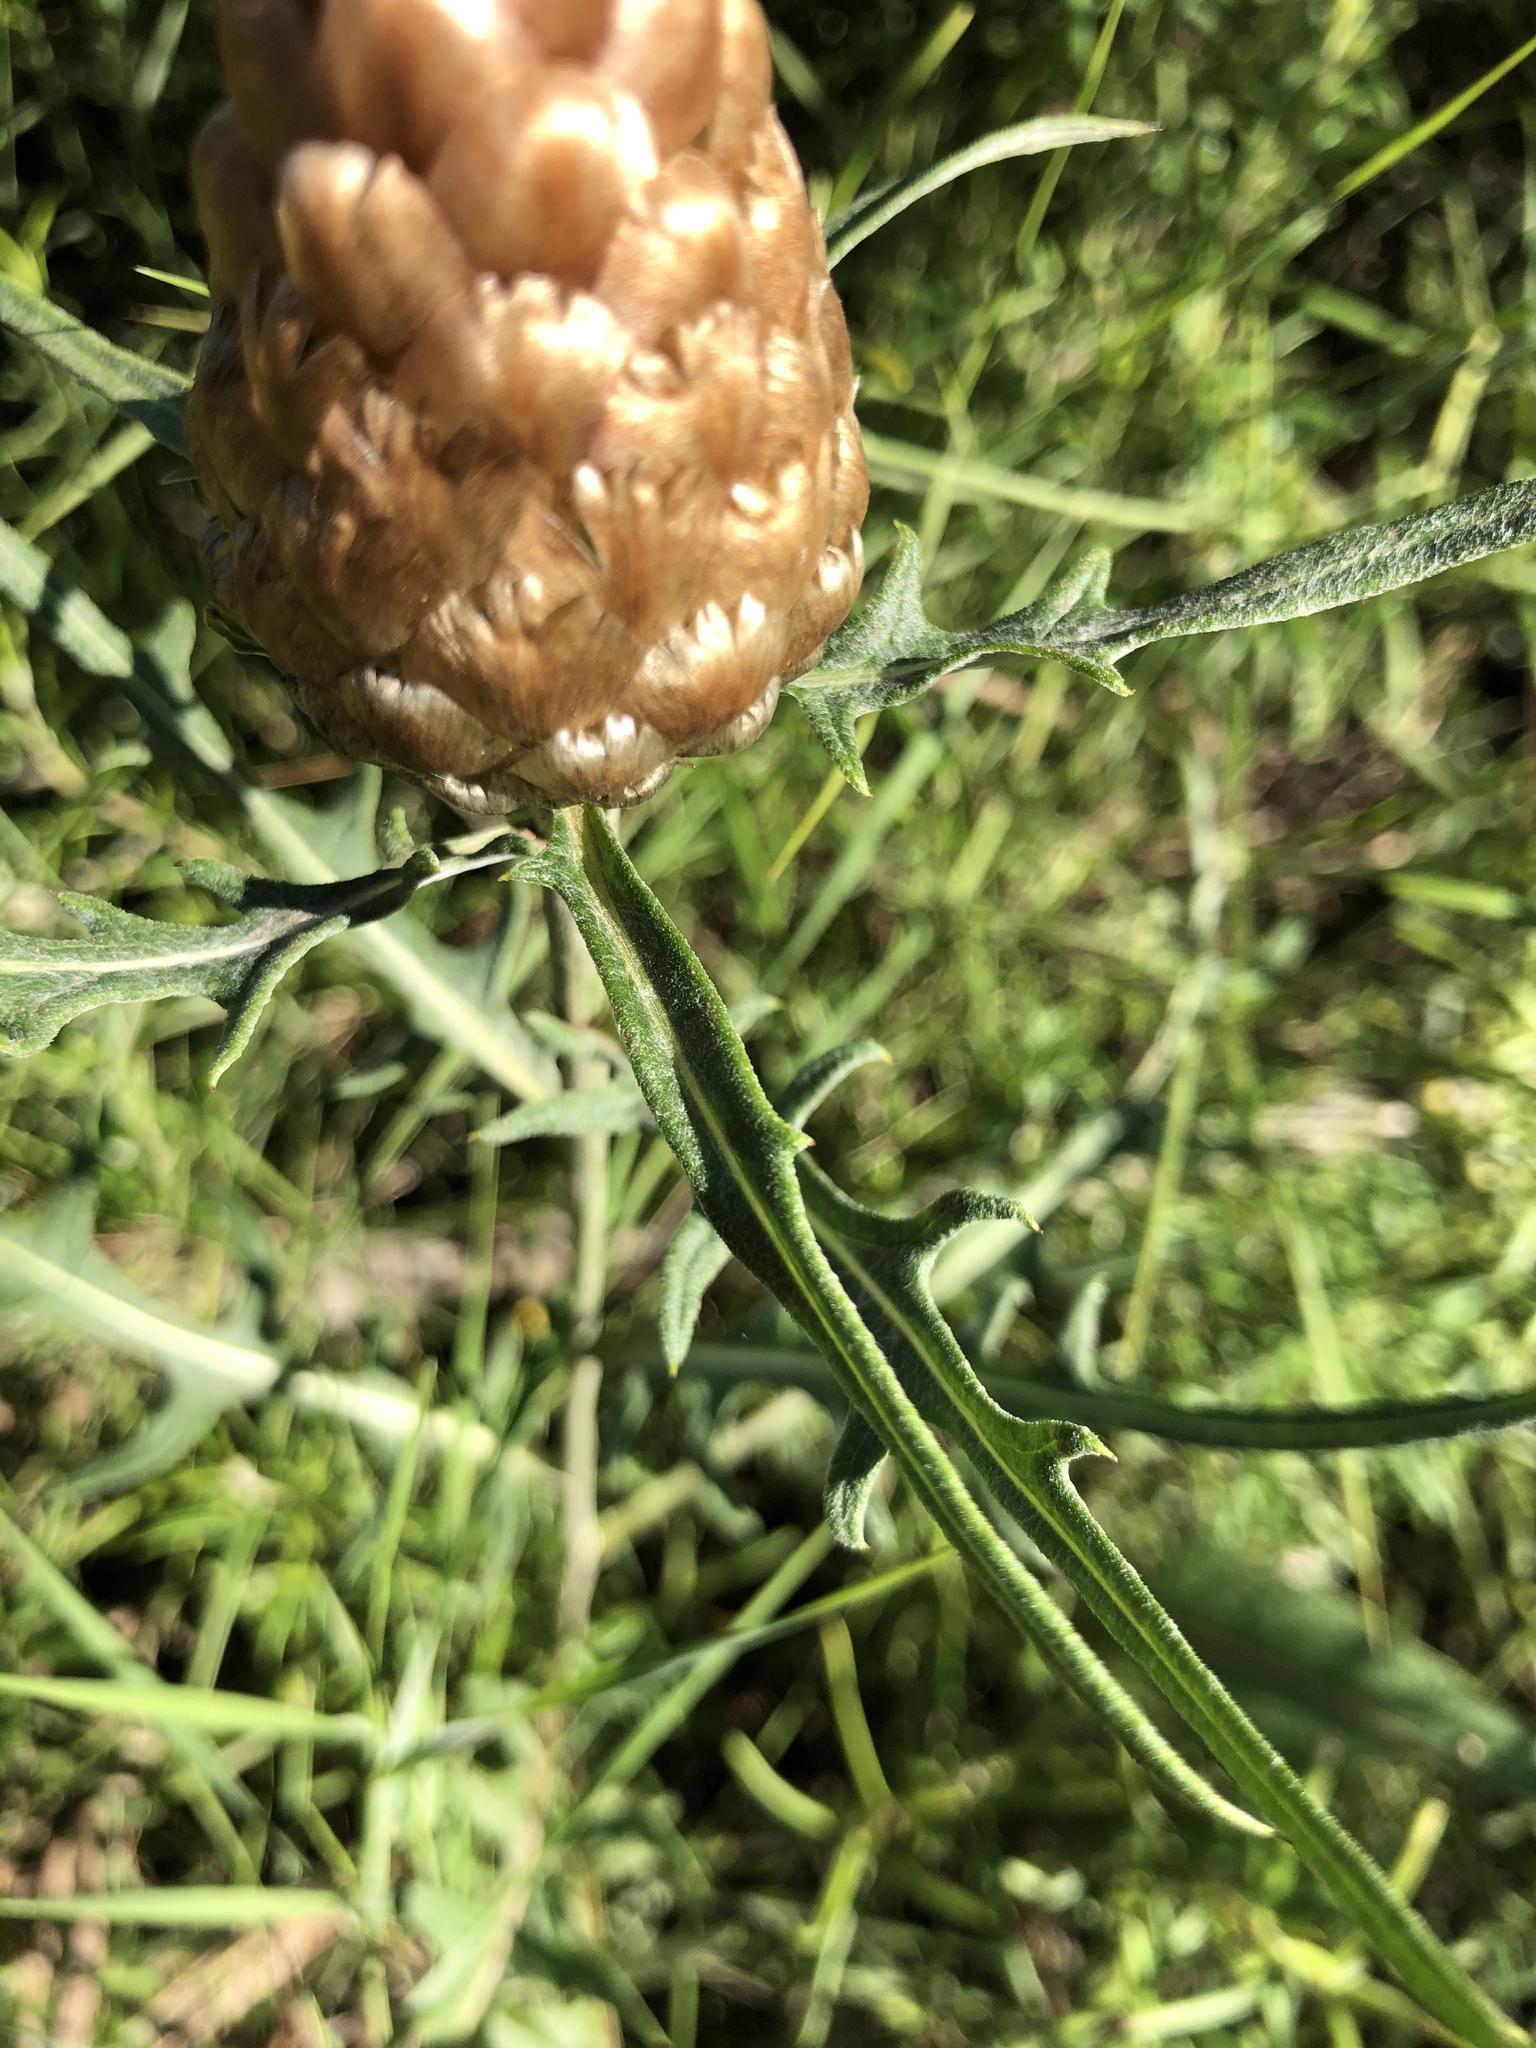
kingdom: Plantae
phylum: Tracheophyta
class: Magnoliopsida
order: Asterales
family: Asteraceae
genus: Leuzea
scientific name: Leuzea conifera
